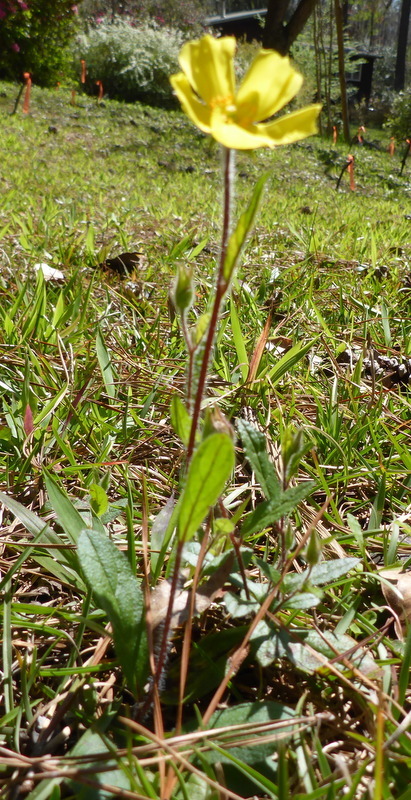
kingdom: Plantae
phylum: Tracheophyta
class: Magnoliopsida
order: Malvales
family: Cistaceae
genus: Crocanthemum
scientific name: Crocanthemum carolinianum
